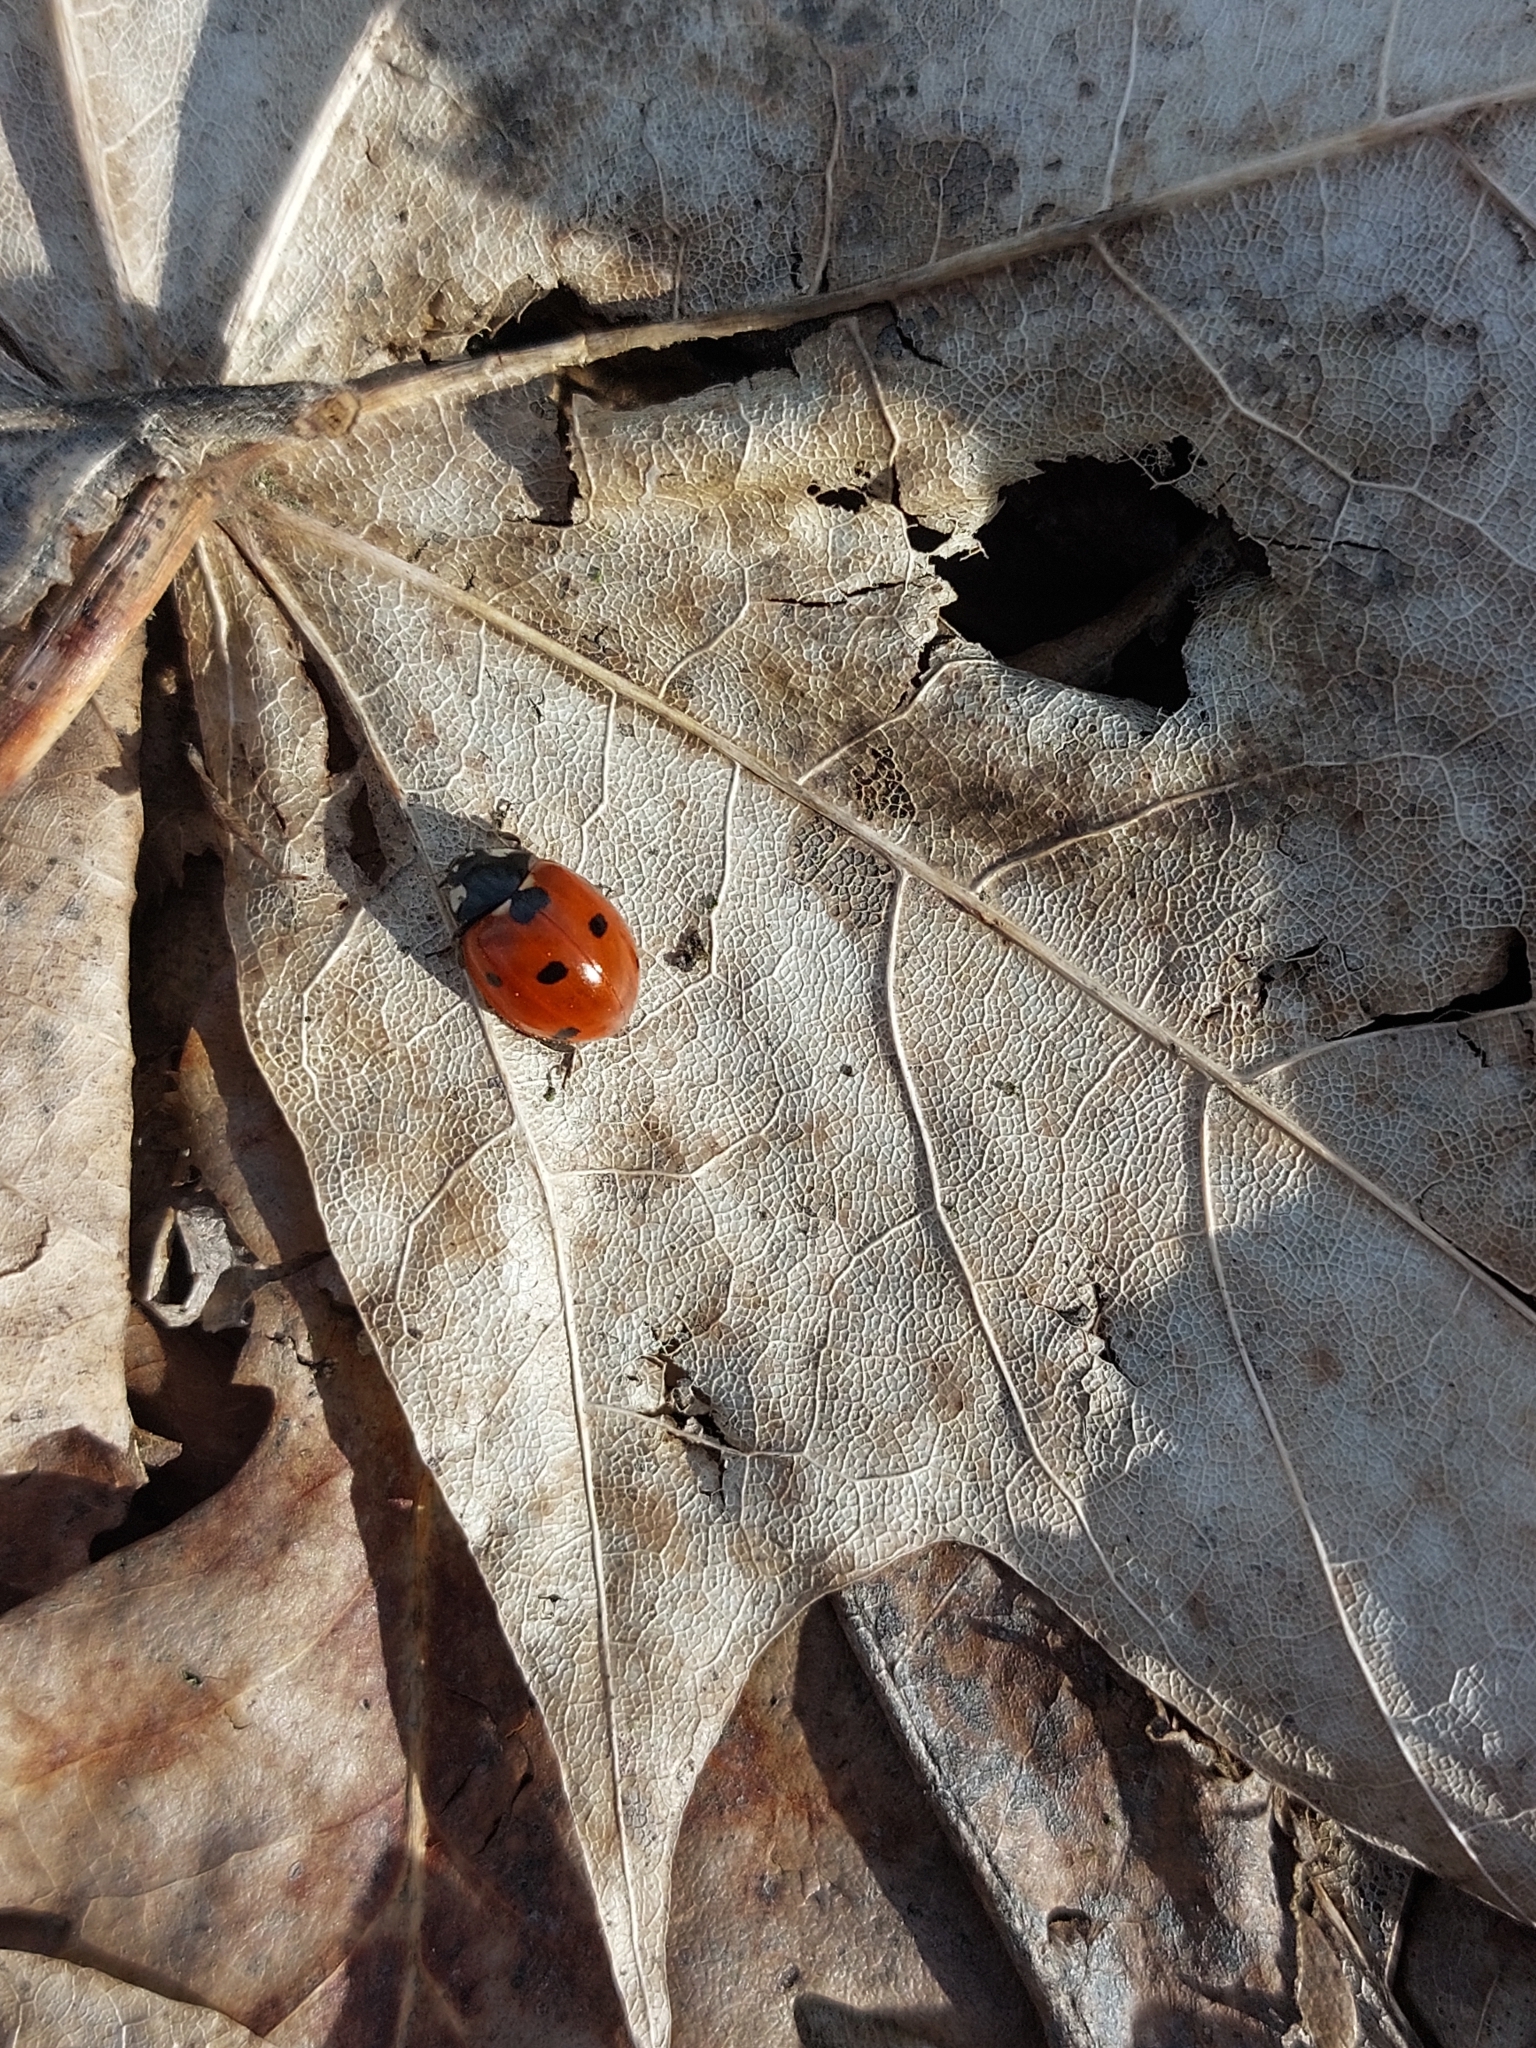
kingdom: Animalia
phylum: Arthropoda
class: Insecta
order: Coleoptera
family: Coccinellidae
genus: Coccinella
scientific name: Coccinella septempunctata
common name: Sevenspotted lady beetle
